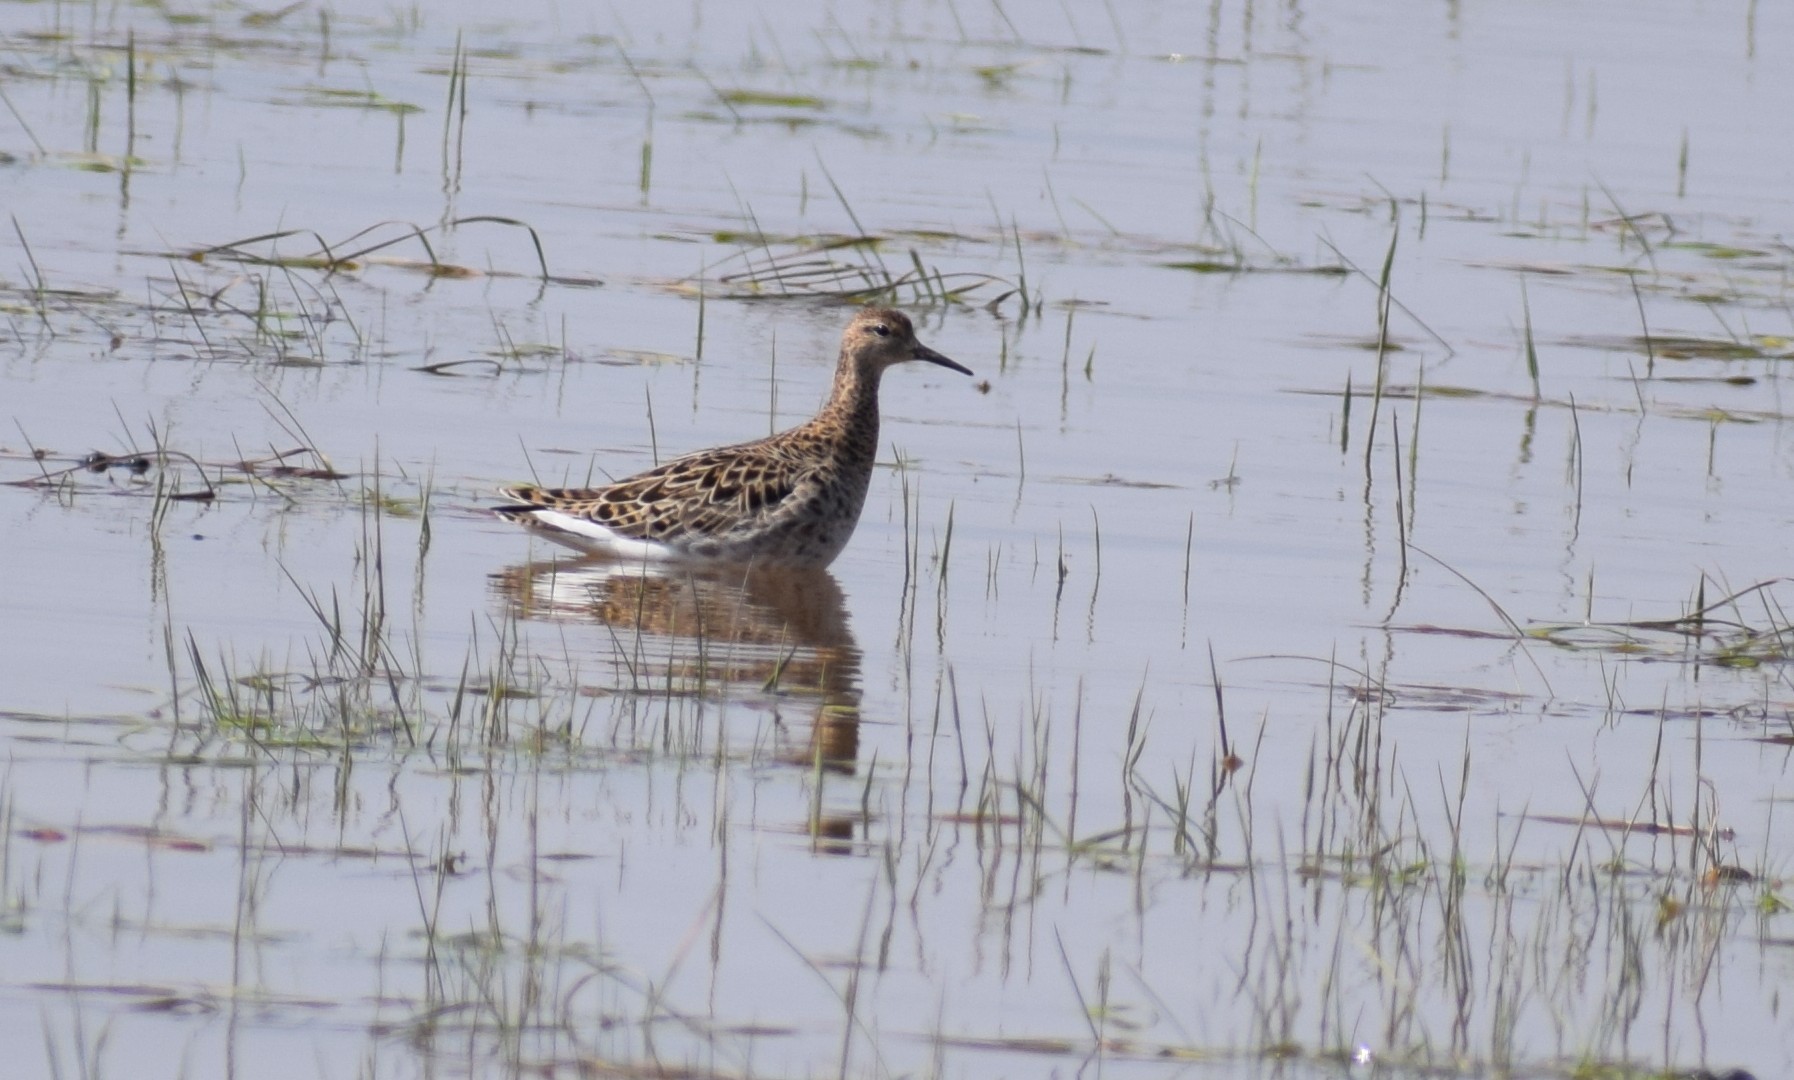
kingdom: Animalia
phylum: Chordata
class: Aves
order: Charadriiformes
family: Scolopacidae
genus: Calidris
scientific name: Calidris pugnax
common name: Ruff
